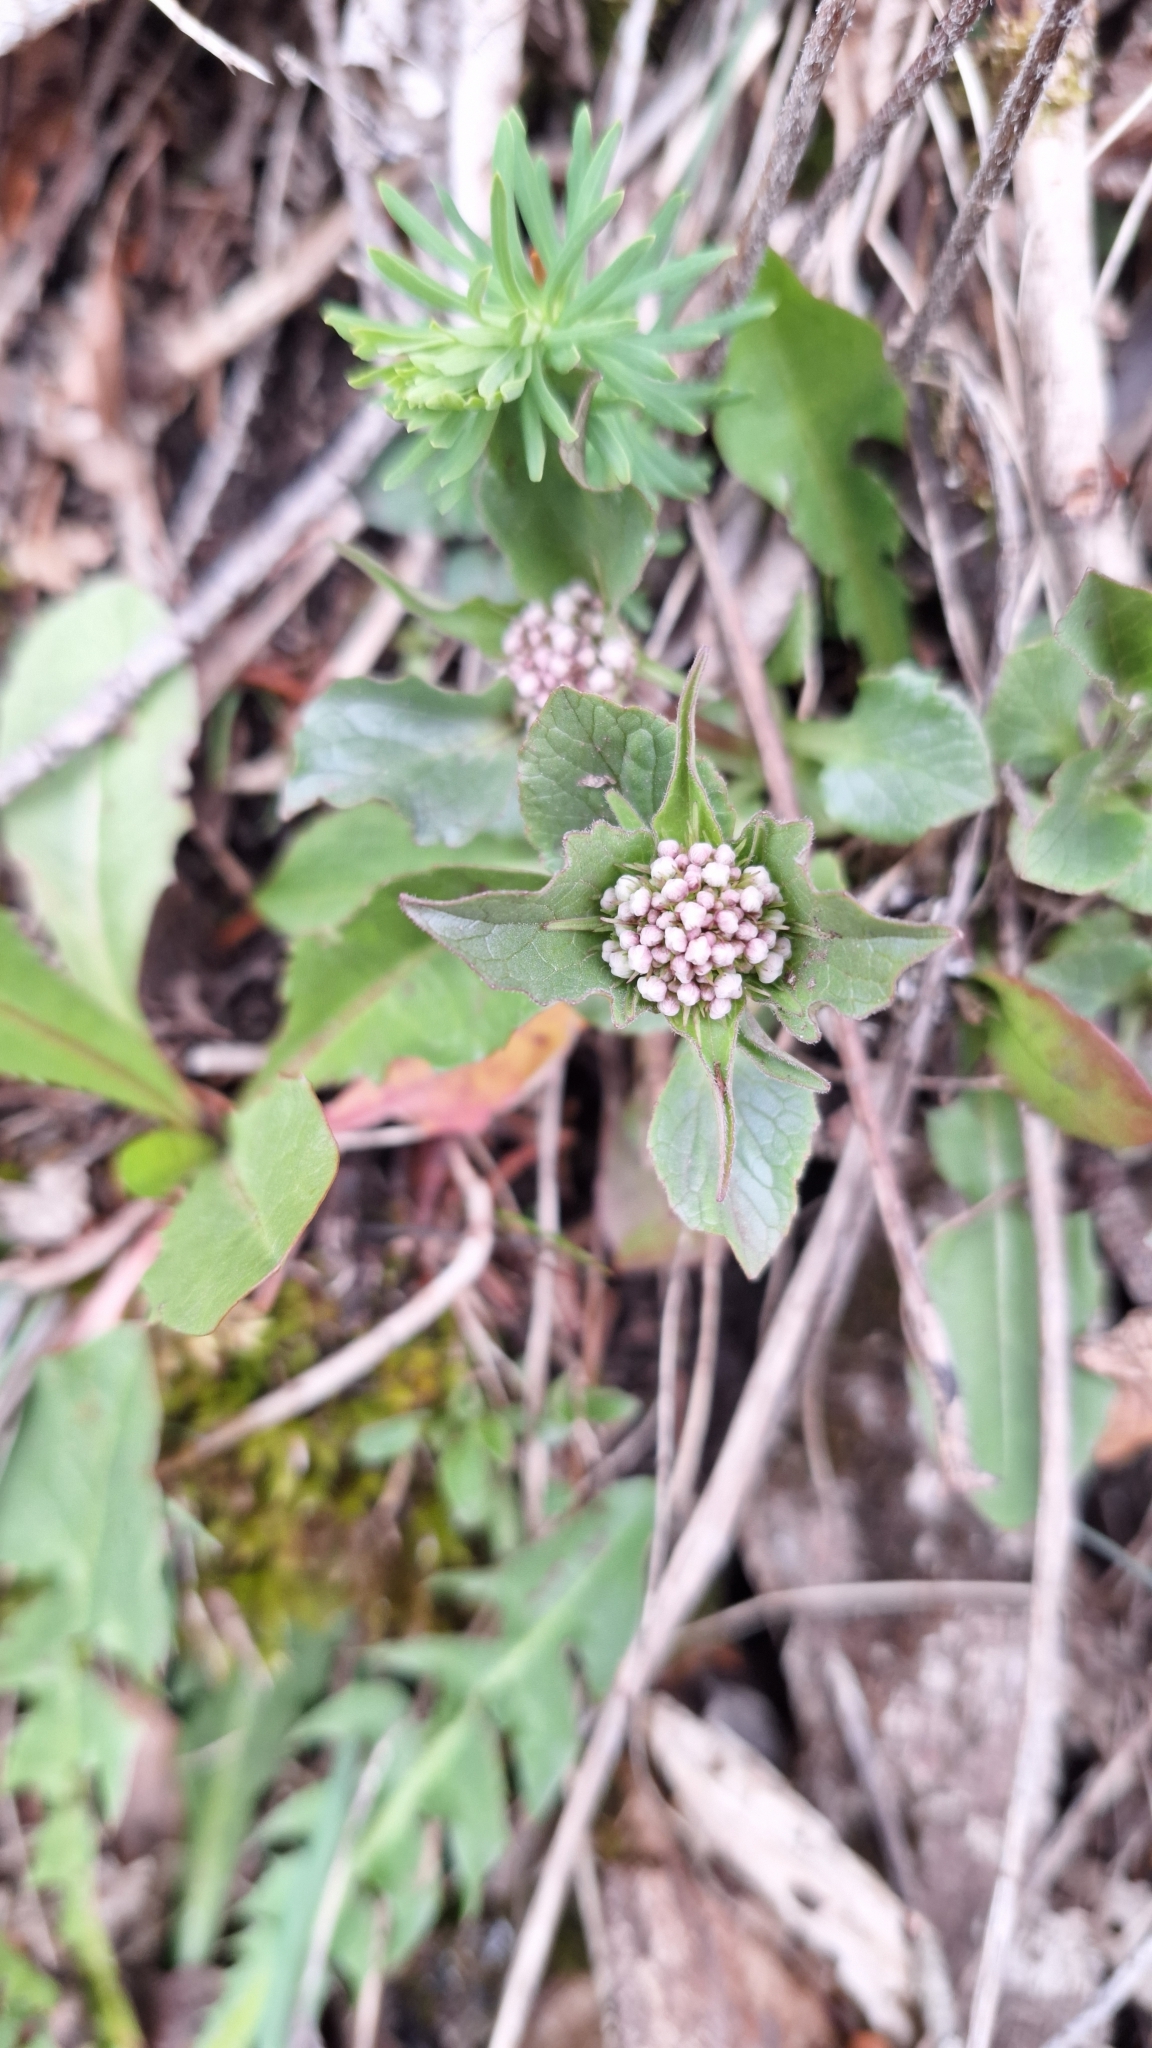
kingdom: Plantae
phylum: Tracheophyta
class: Magnoliopsida
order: Dipsacales
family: Caprifoliaceae
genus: Valeriana
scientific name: Valeriana tripteris
